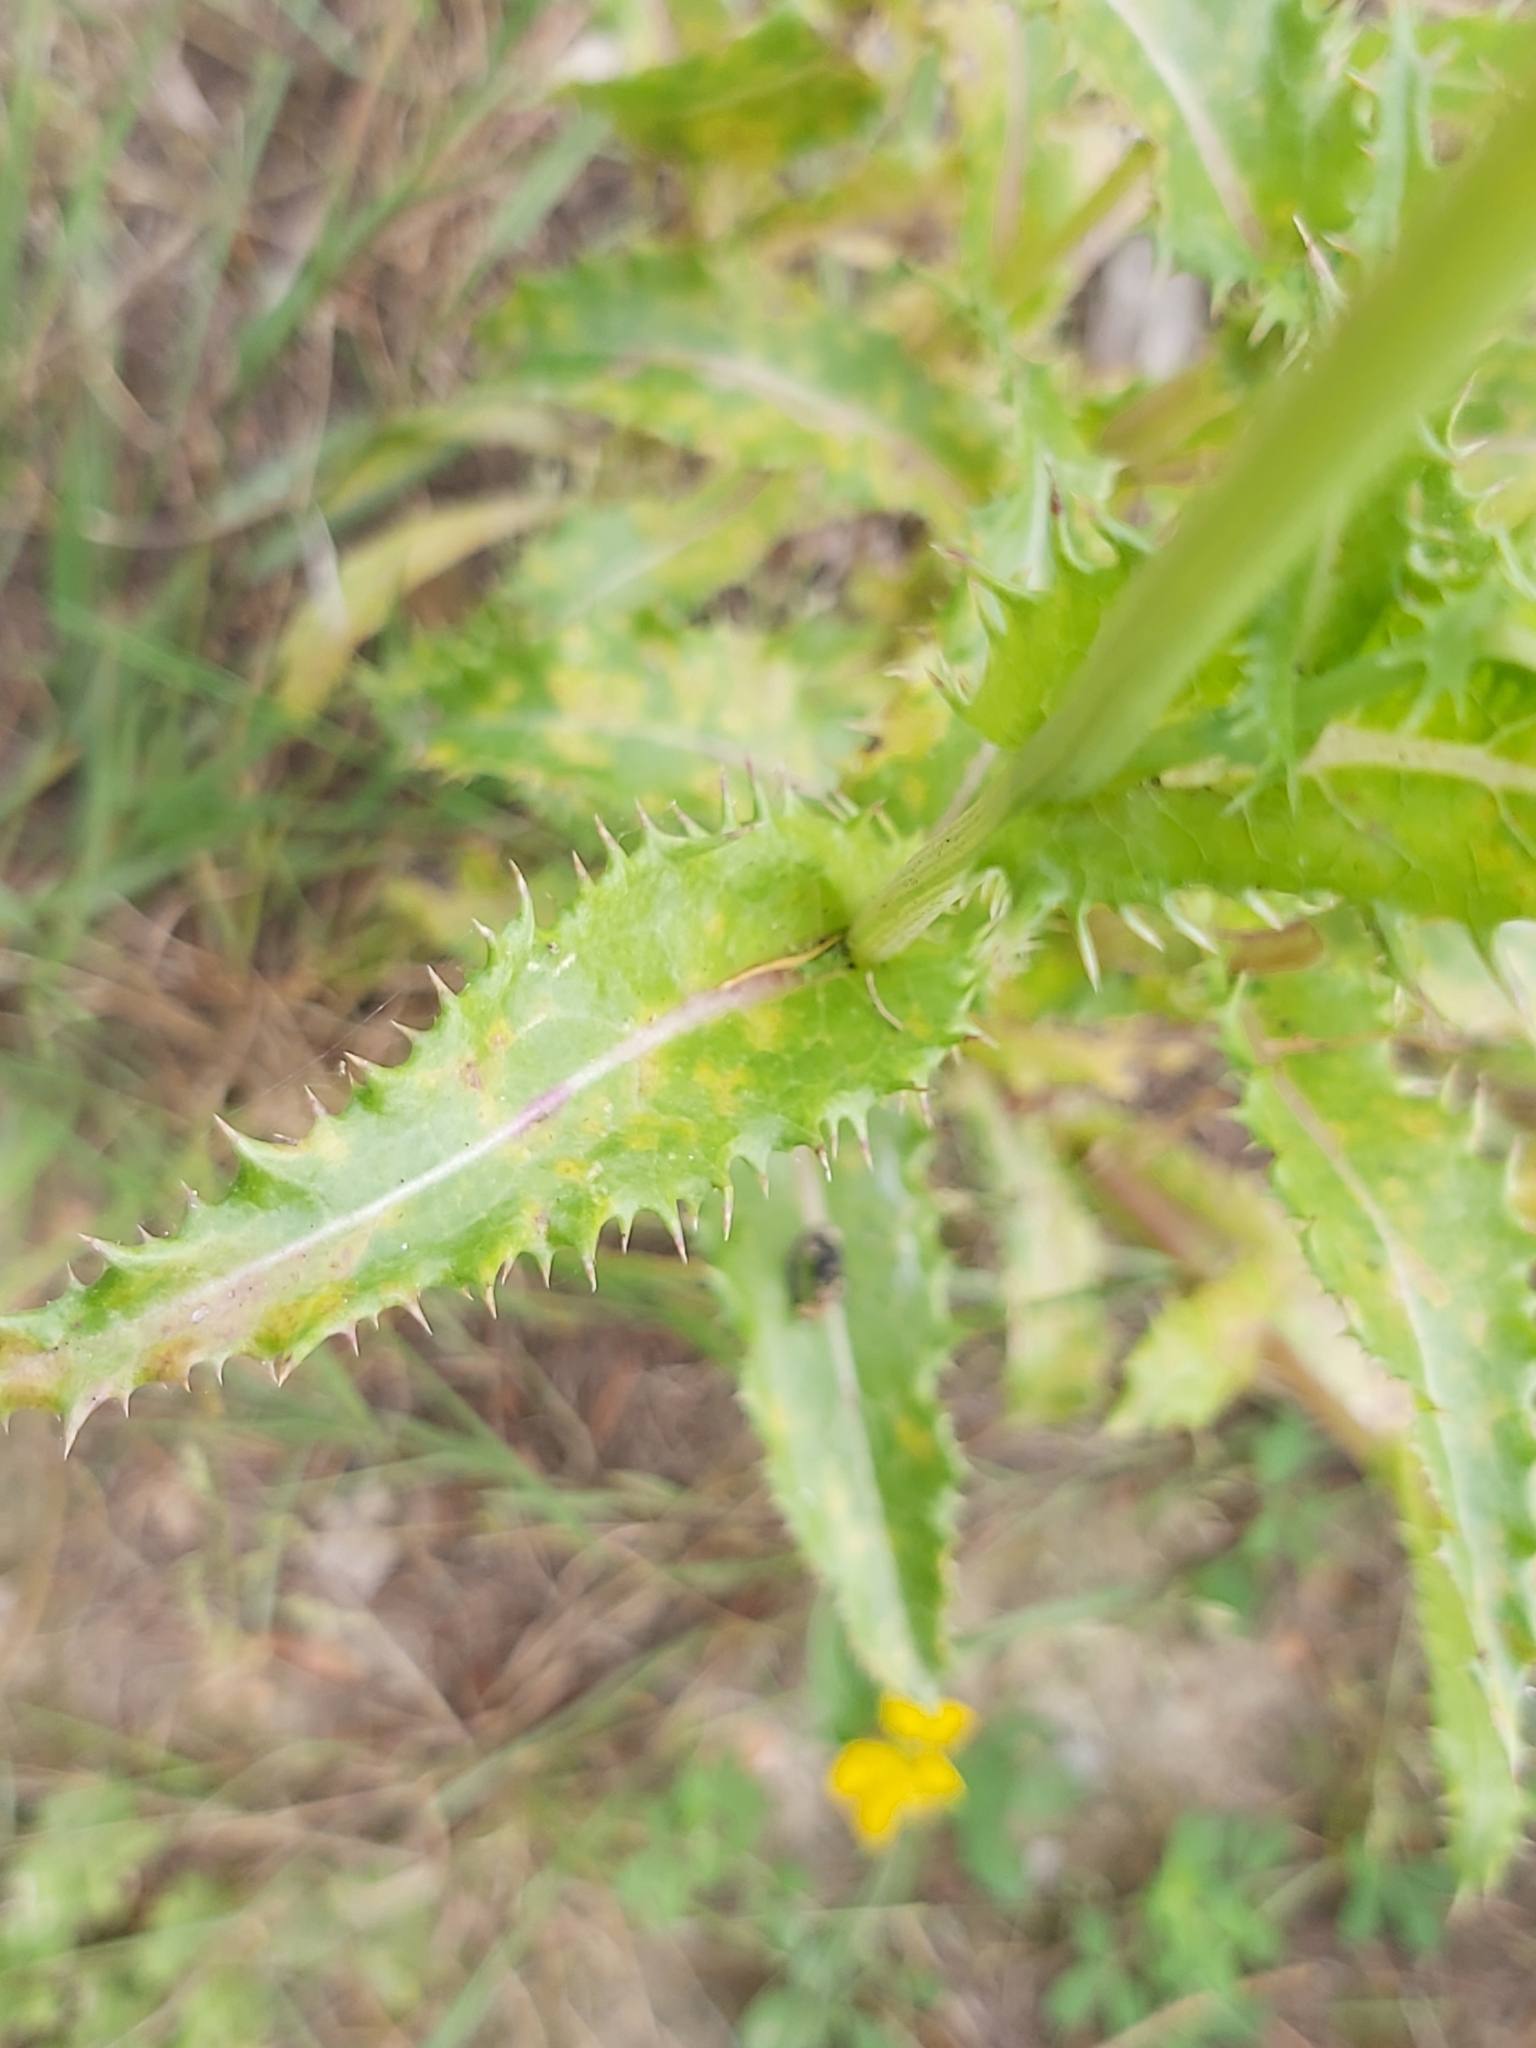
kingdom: Plantae
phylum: Tracheophyta
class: Magnoliopsida
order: Asterales
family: Asteraceae
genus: Sonchus
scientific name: Sonchus asper
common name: Prickly sow-thistle
